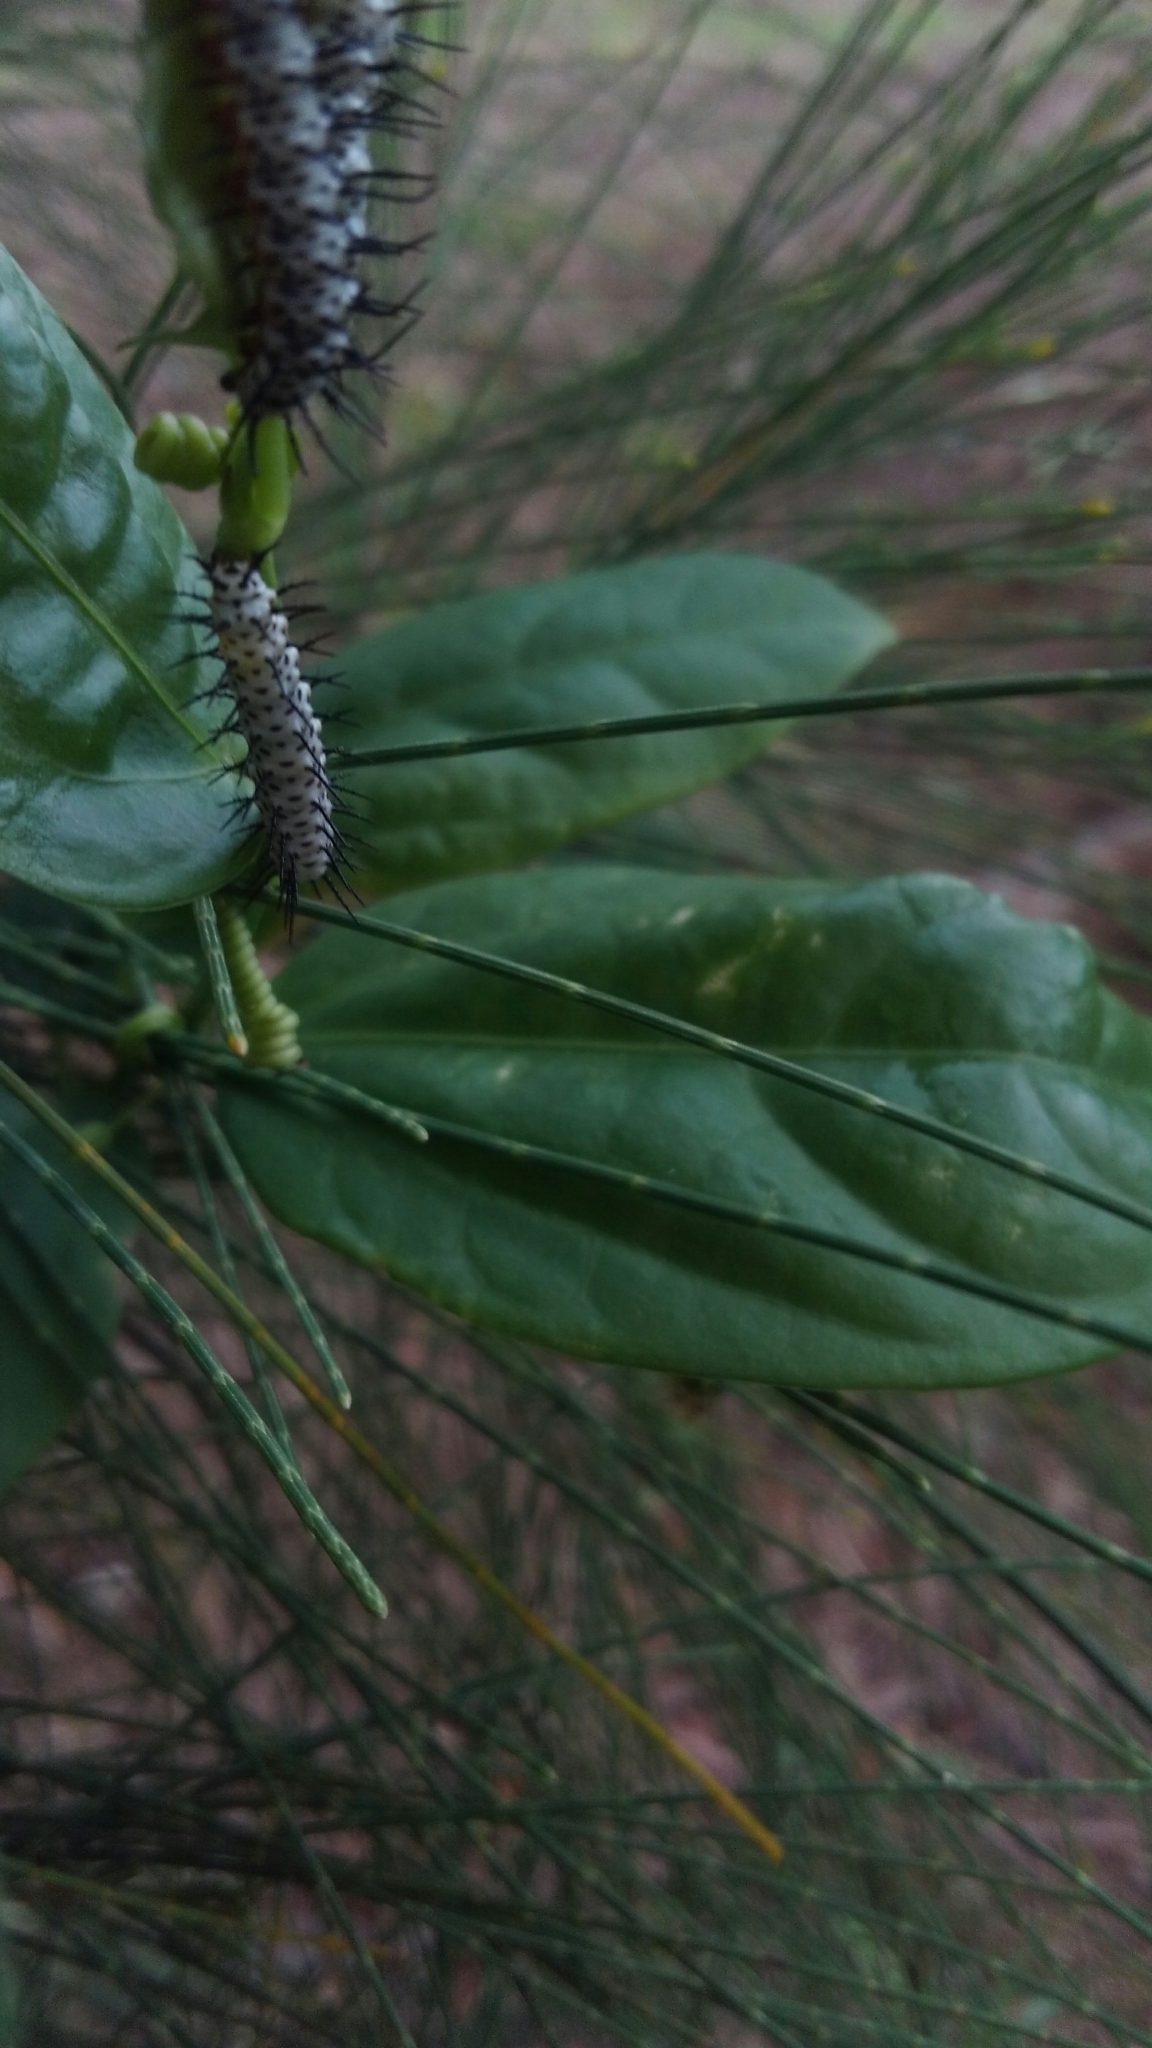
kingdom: Animalia
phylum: Arthropoda
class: Insecta
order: Lepidoptera
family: Nymphalidae
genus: Heliconius
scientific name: Heliconius charithonia
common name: Zebra long wing
